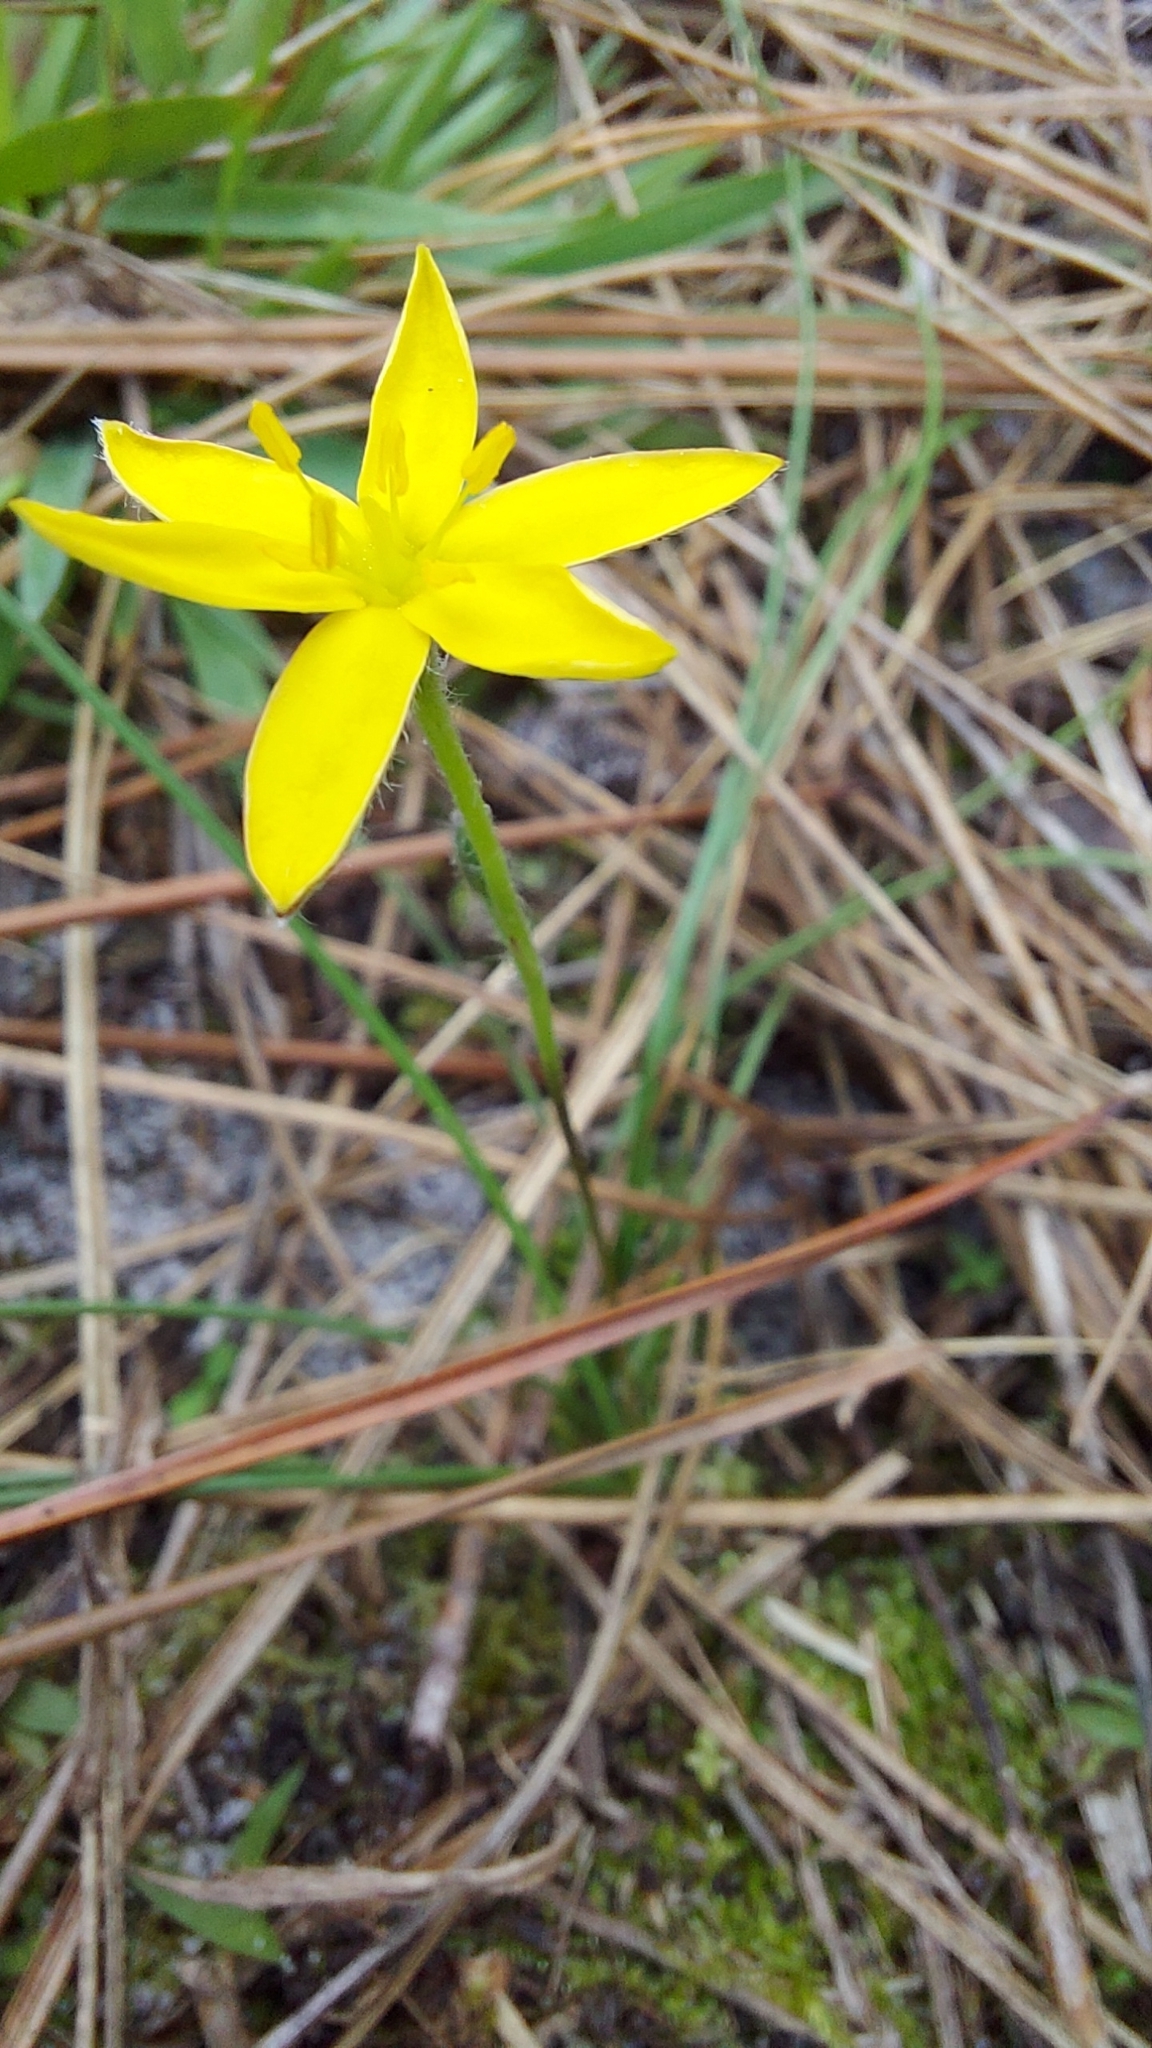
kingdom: Plantae
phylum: Tracheophyta
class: Liliopsida
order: Asparagales
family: Hypoxidaceae
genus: Hypoxis
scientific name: Hypoxis juncea
